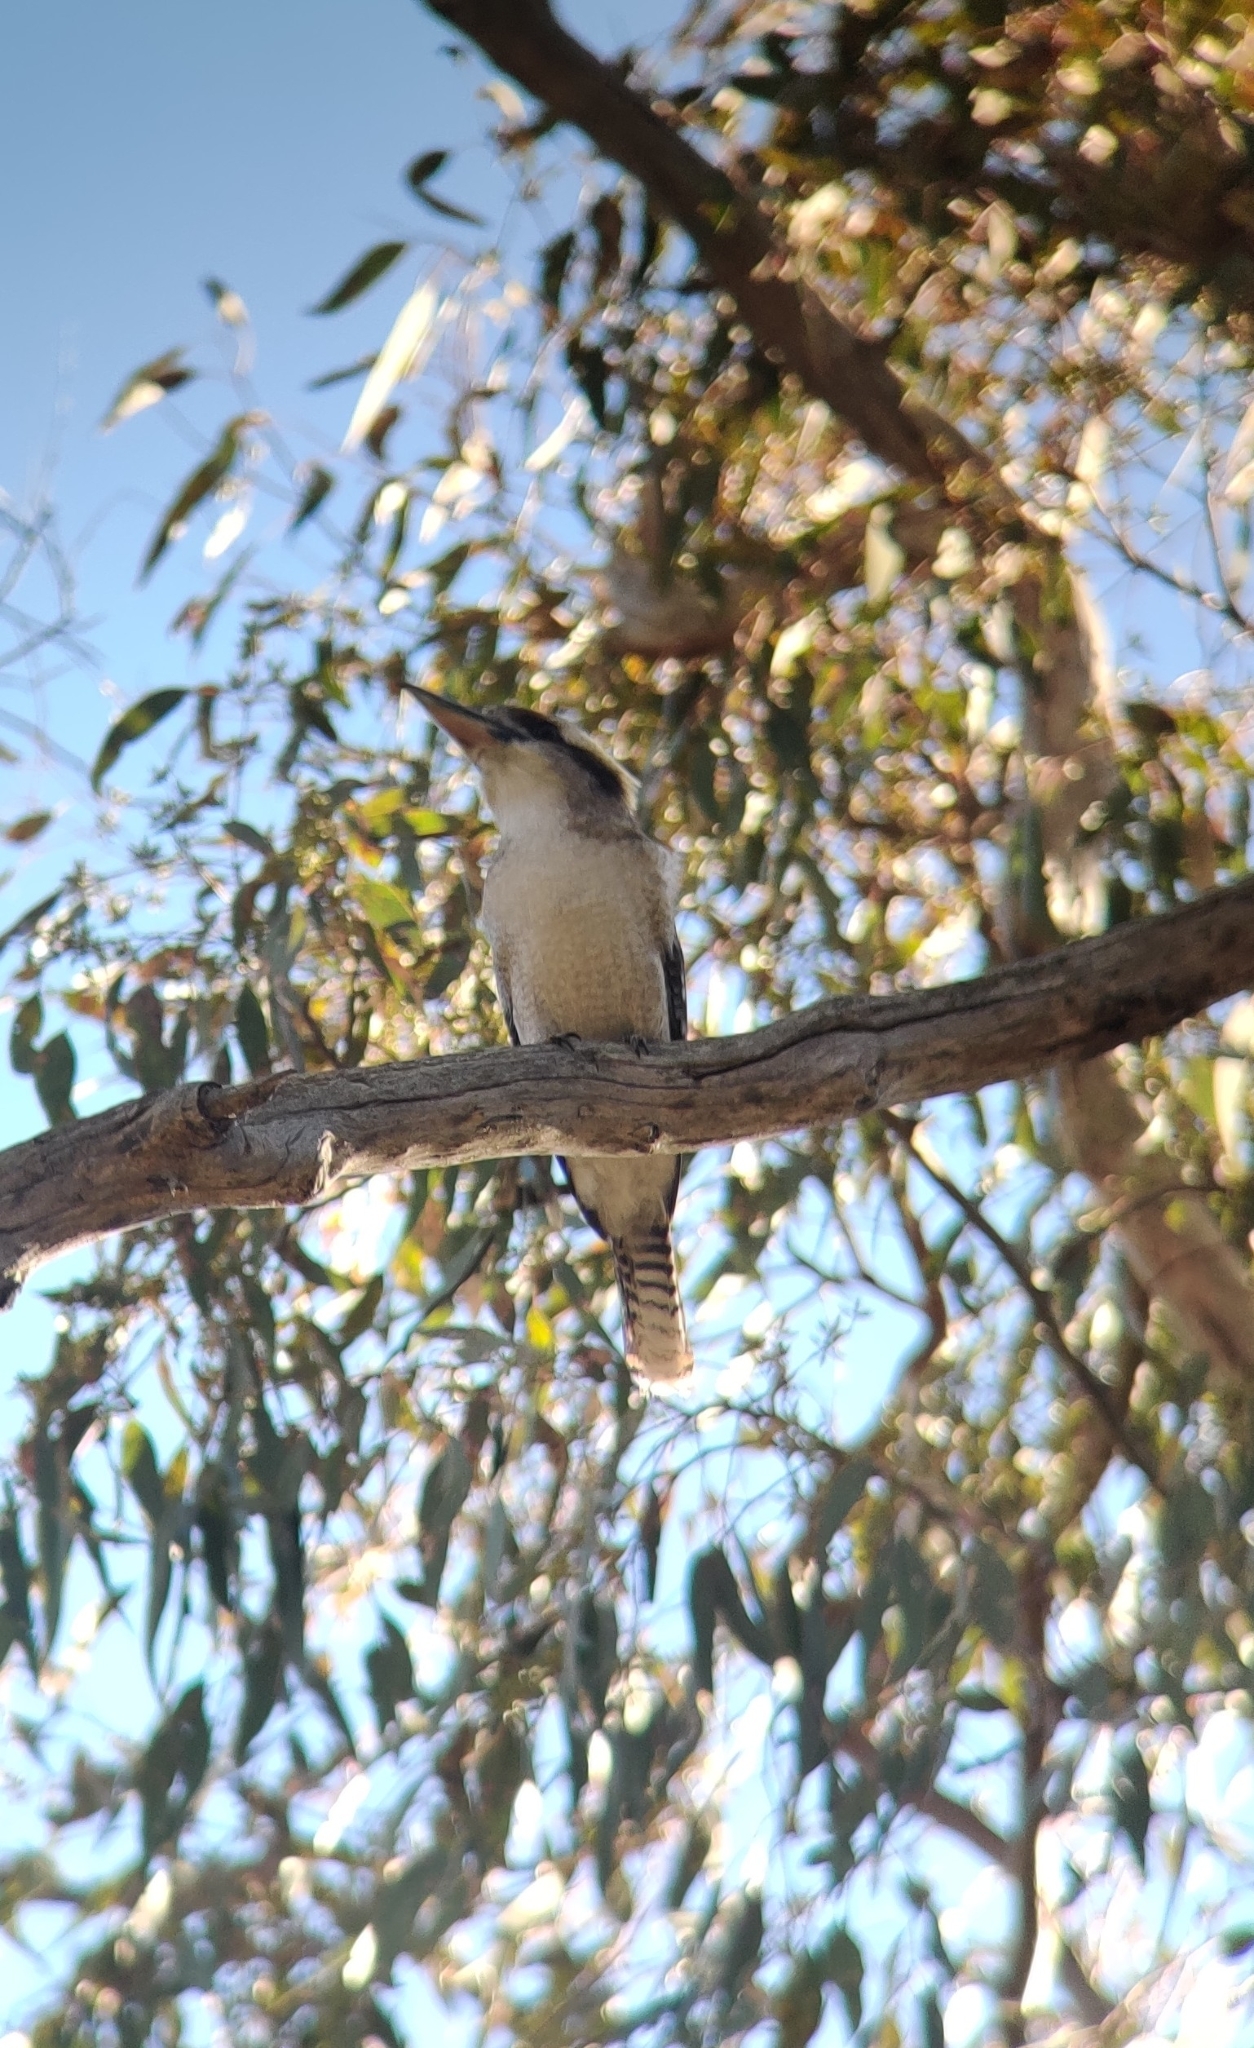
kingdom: Animalia
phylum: Chordata
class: Aves
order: Coraciiformes
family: Alcedinidae
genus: Dacelo
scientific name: Dacelo novaeguineae
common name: Laughing kookaburra
